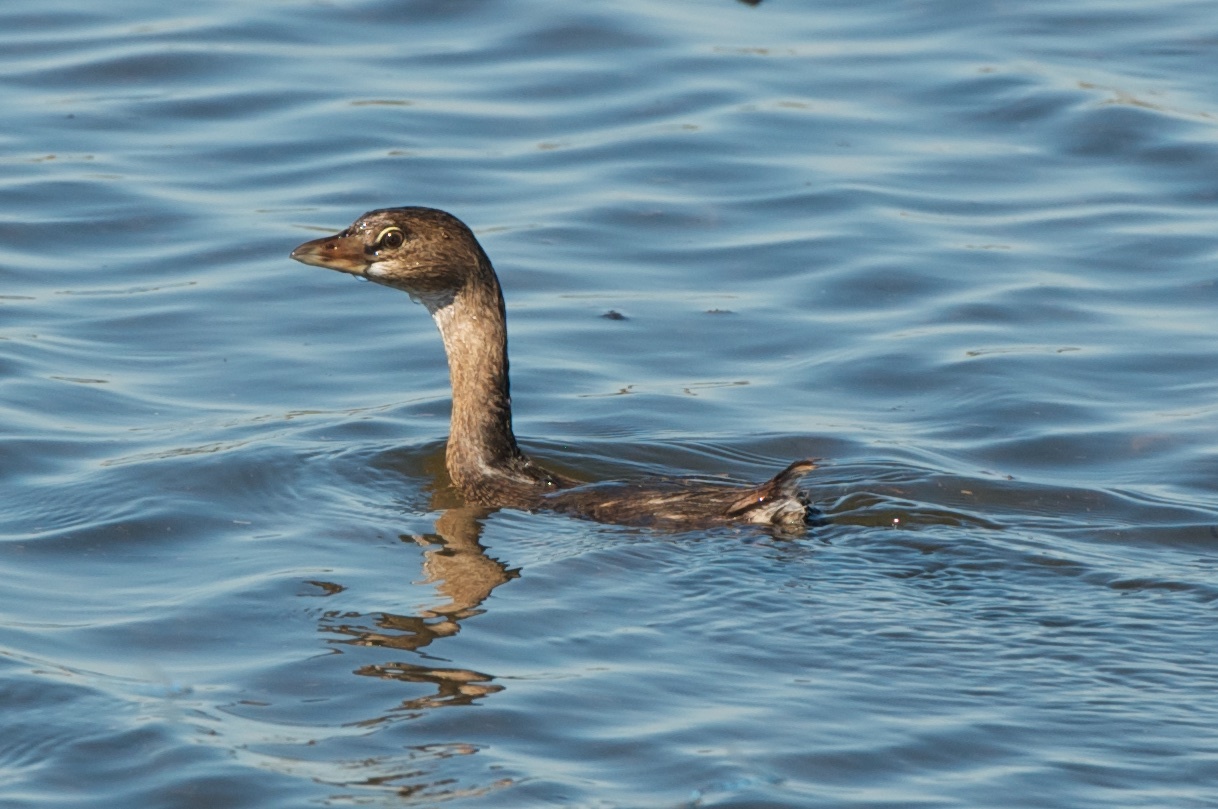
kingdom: Animalia
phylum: Chordata
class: Aves
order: Podicipediformes
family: Podicipedidae
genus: Podilymbus
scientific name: Podilymbus podiceps
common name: Pied-billed grebe
